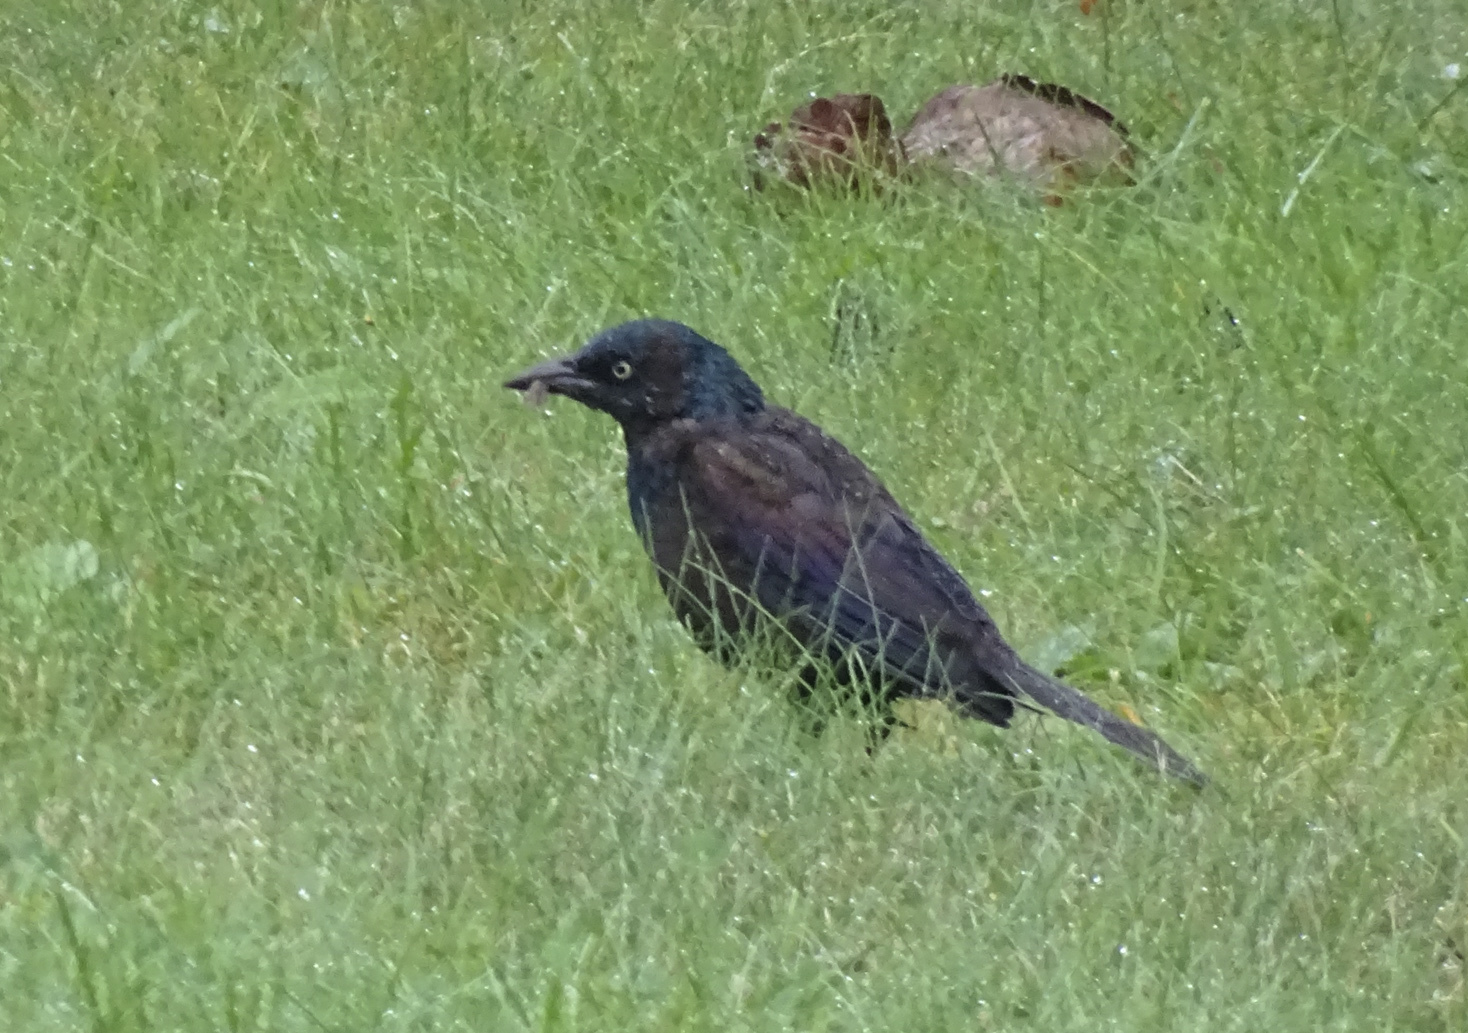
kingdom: Animalia
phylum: Chordata
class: Aves
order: Passeriformes
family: Icteridae
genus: Quiscalus
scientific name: Quiscalus quiscula
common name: Common grackle
